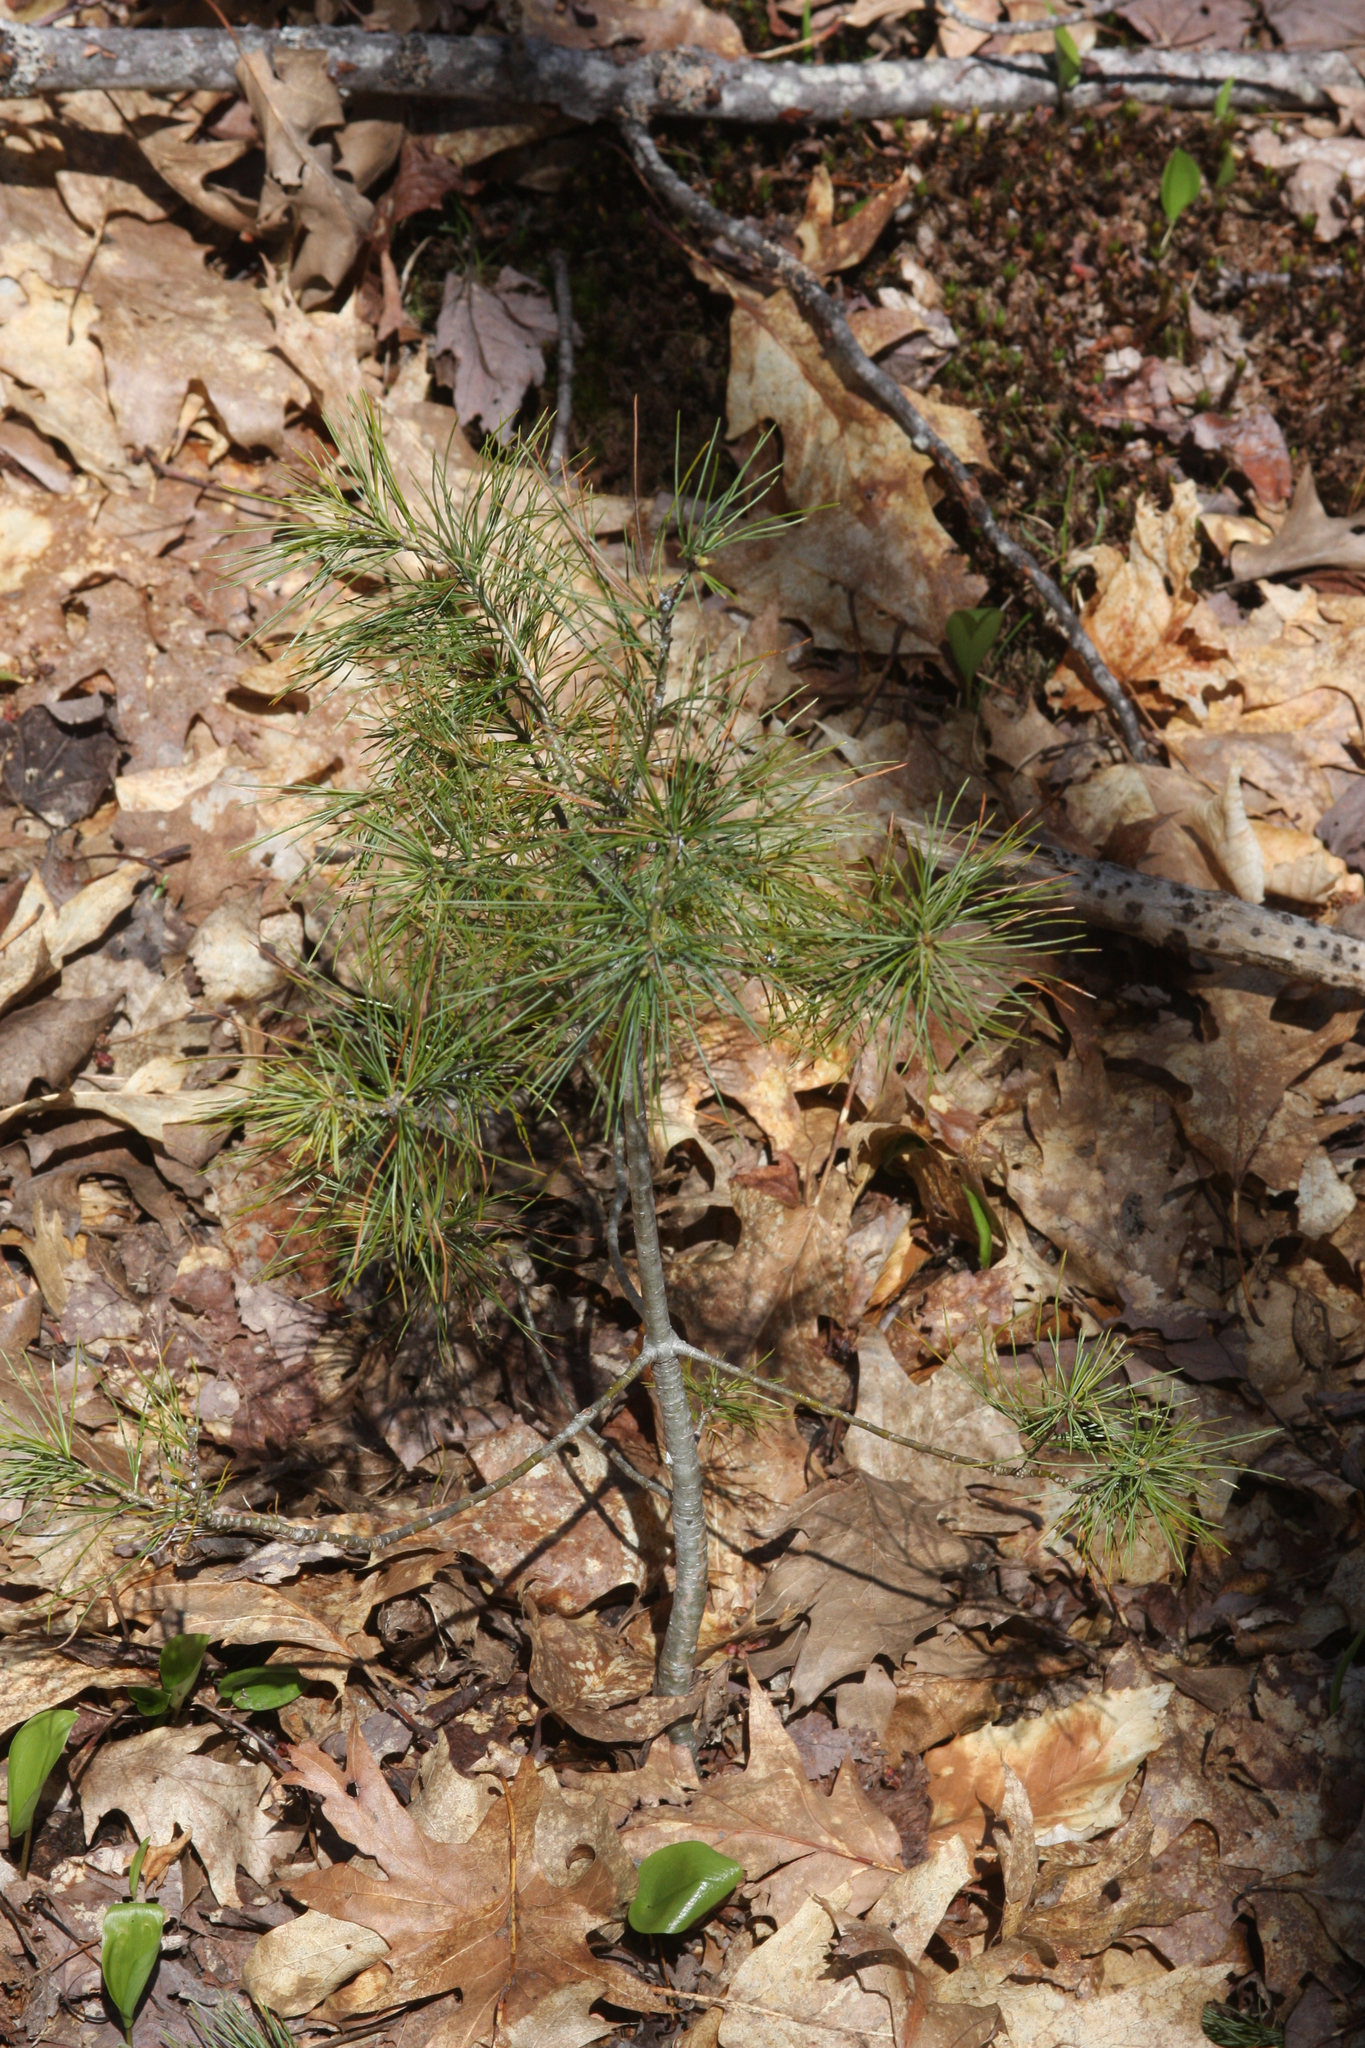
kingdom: Plantae
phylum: Tracheophyta
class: Pinopsida
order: Pinales
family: Pinaceae
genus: Pinus
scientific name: Pinus strobus
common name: Weymouth pine
